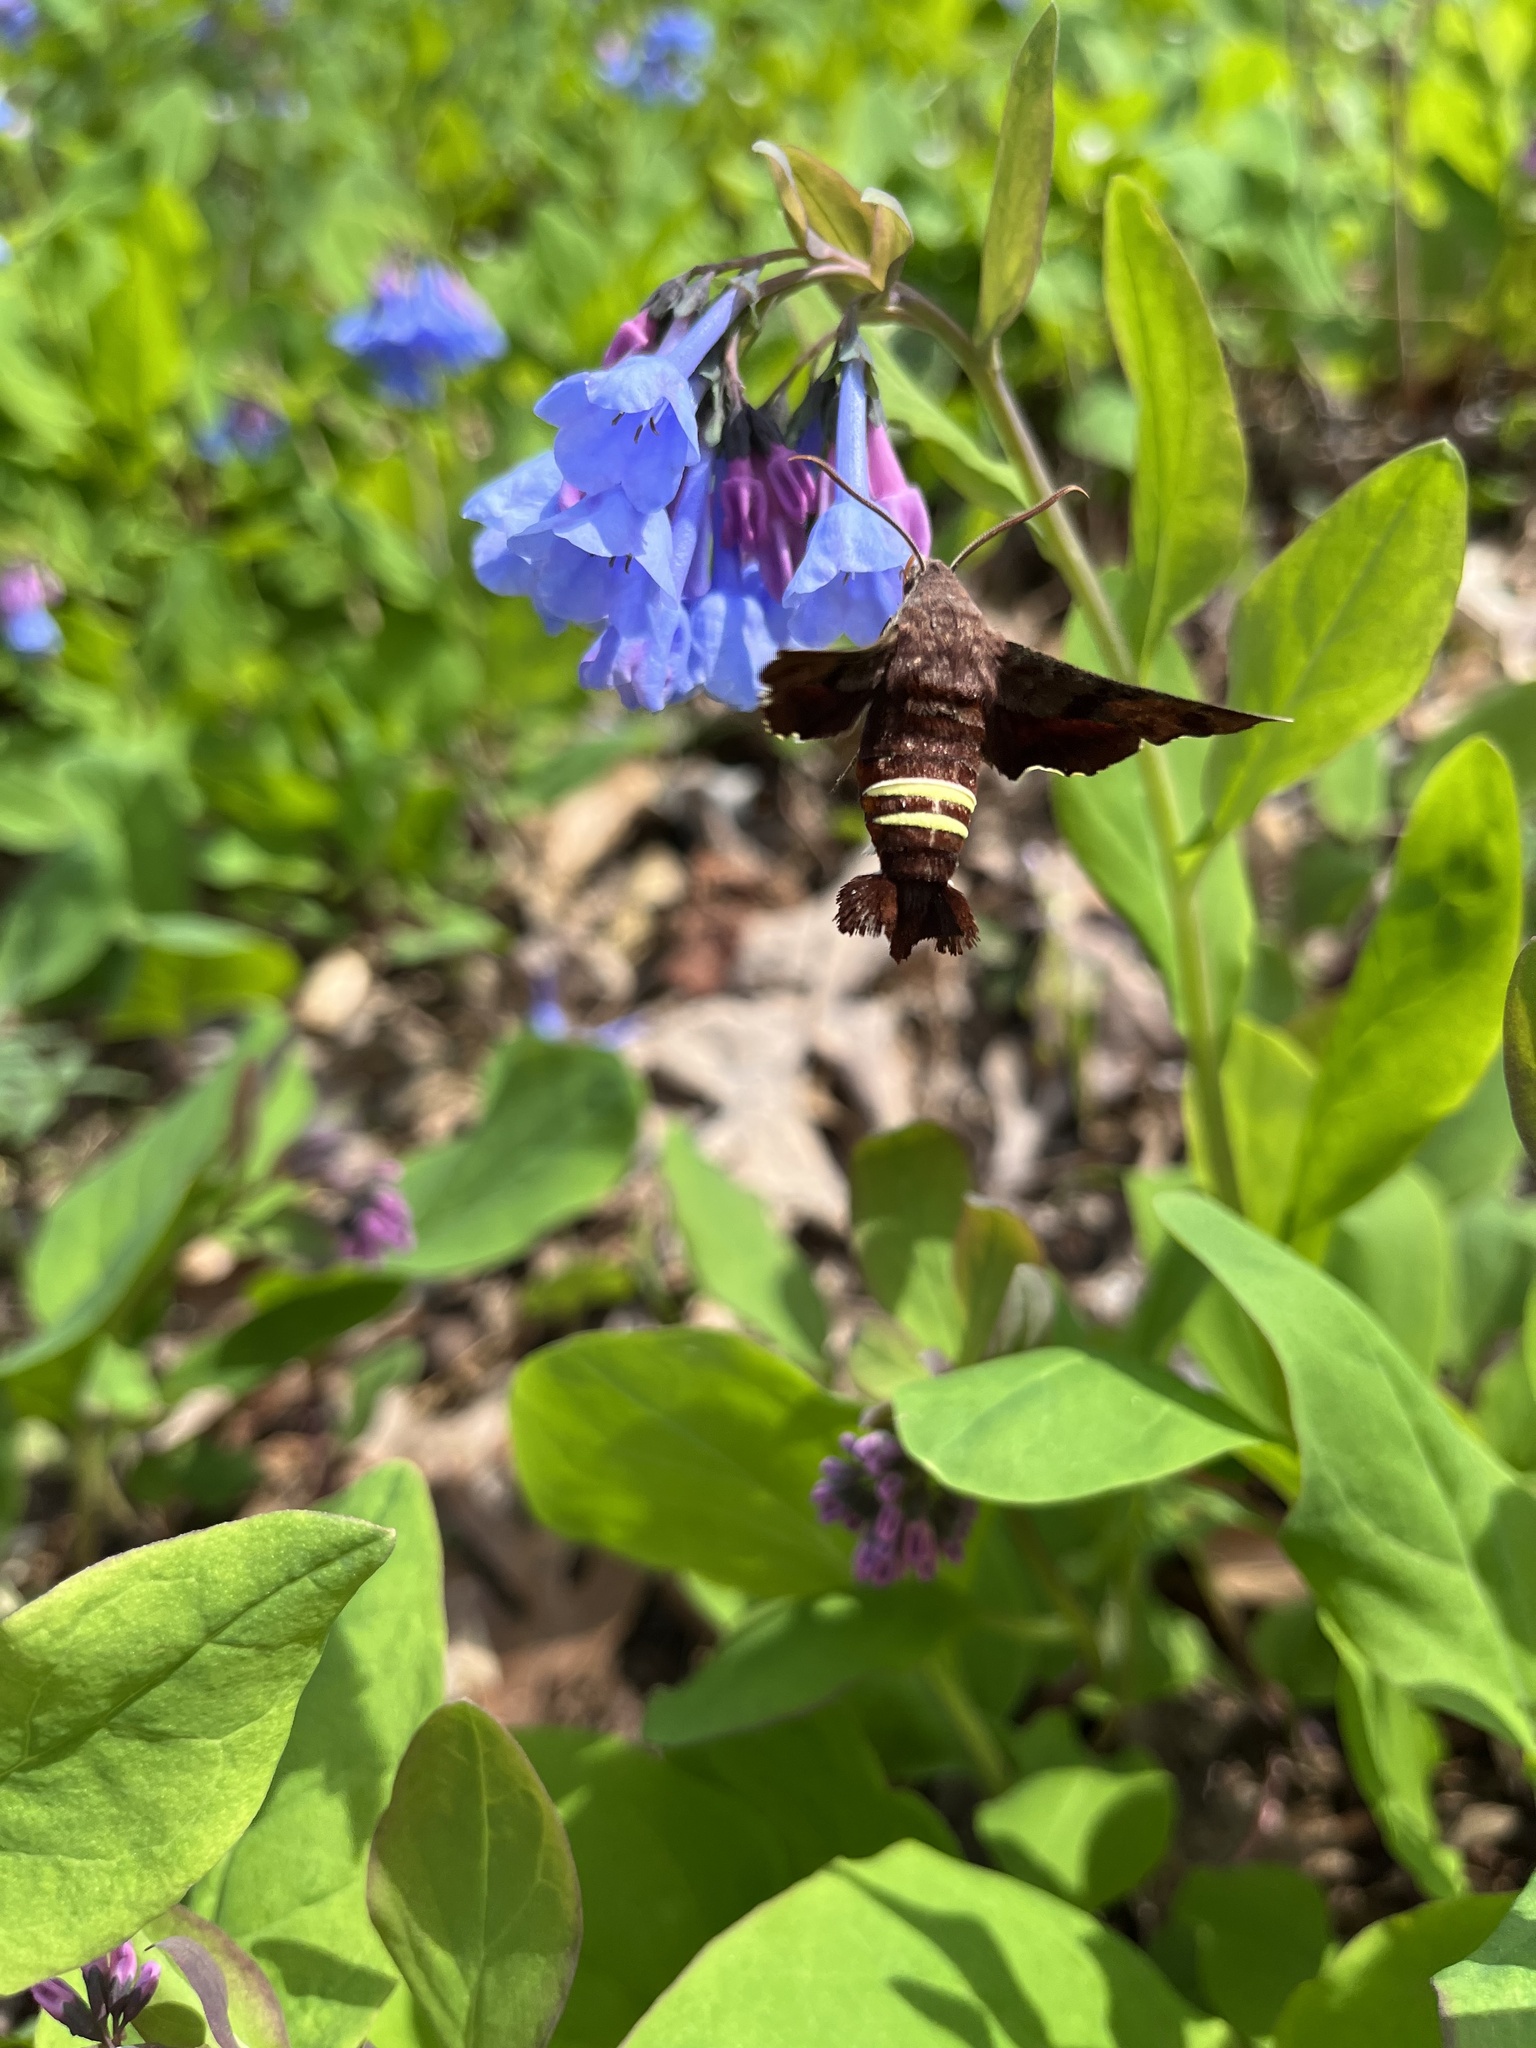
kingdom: Animalia
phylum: Arthropoda
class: Insecta
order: Lepidoptera
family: Sphingidae
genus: Amphion
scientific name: Amphion floridensis
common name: Nessus sphinx
